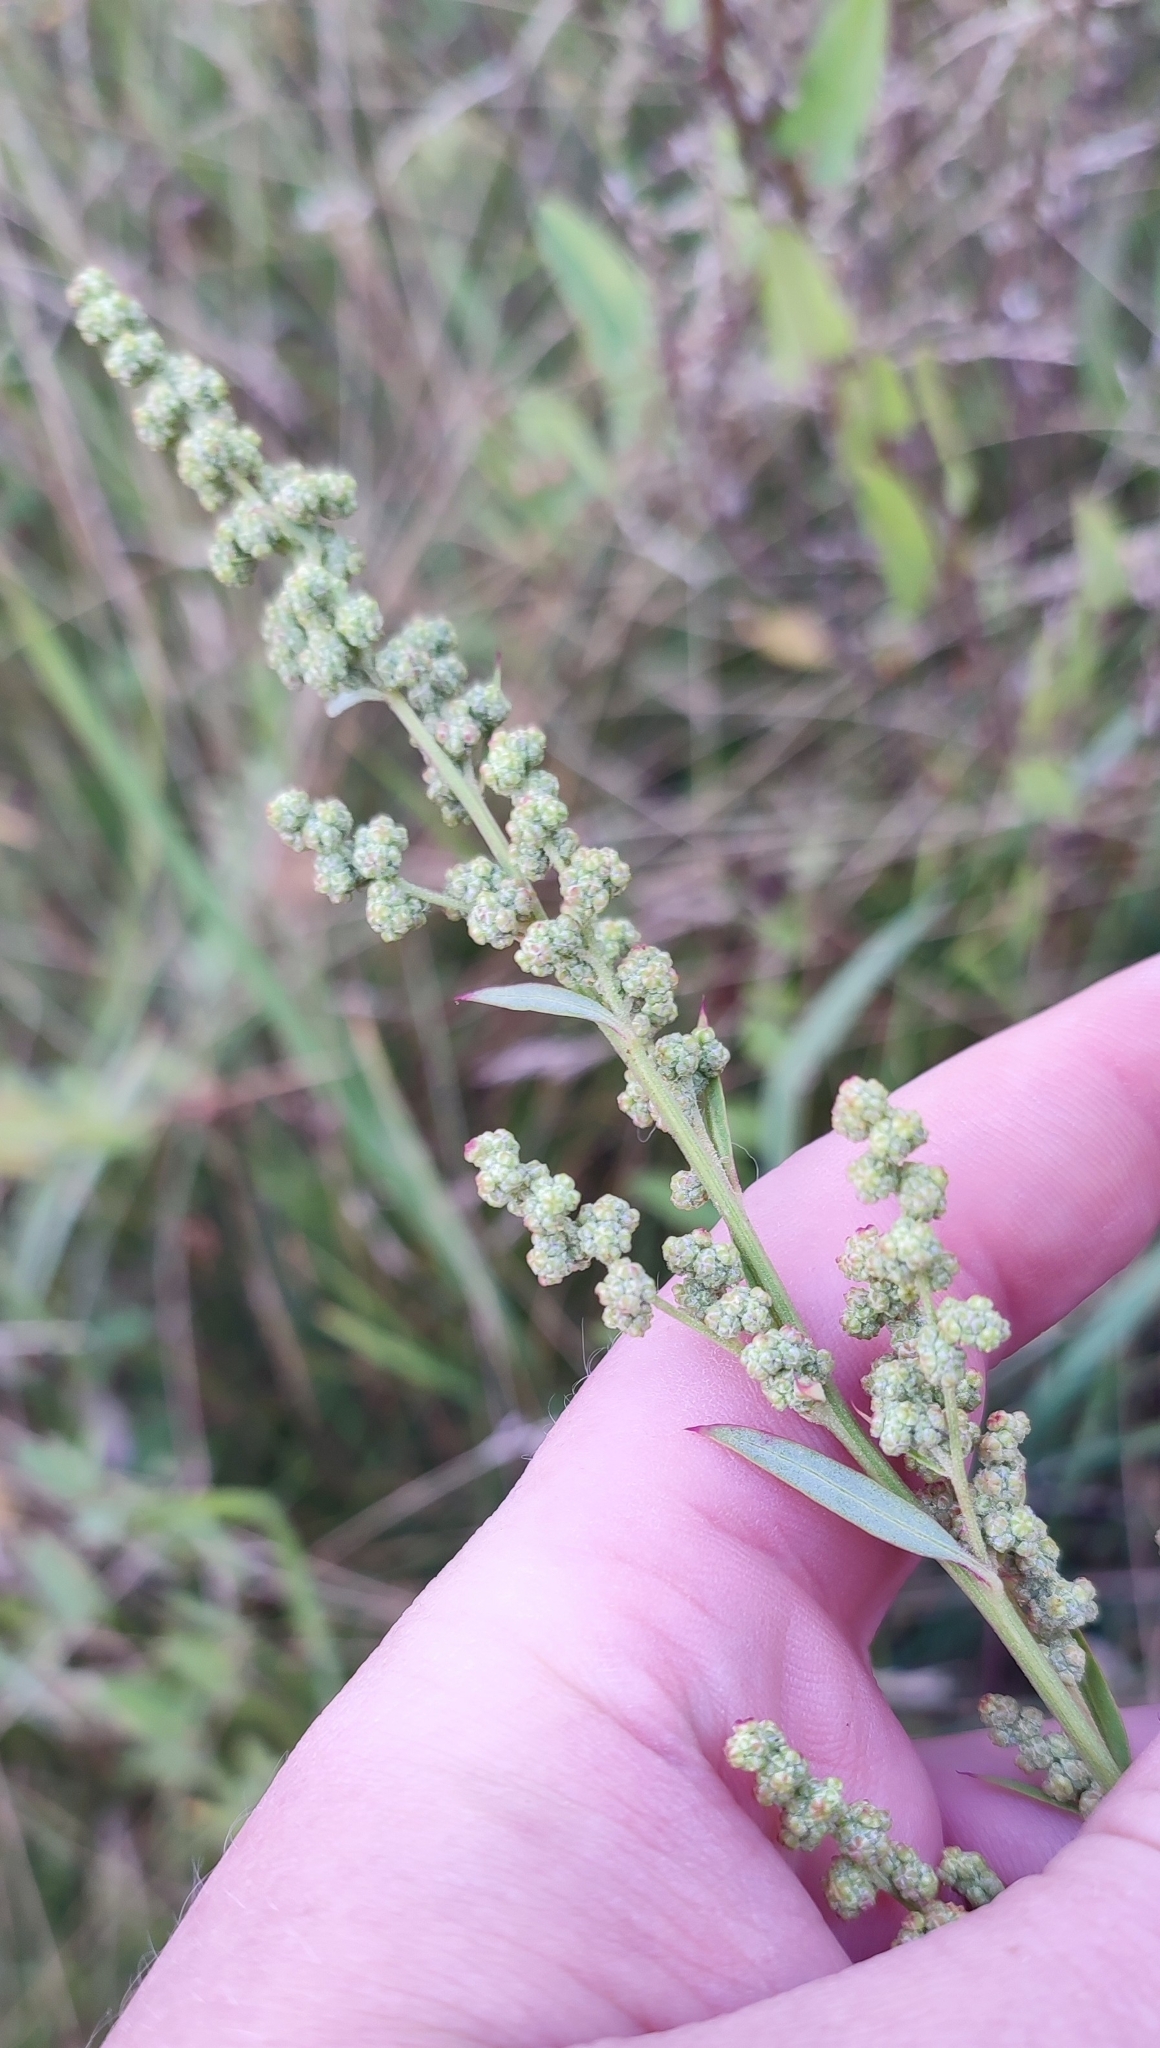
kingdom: Plantae
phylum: Tracheophyta
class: Magnoliopsida
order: Caryophyllales
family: Amaranthaceae
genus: Chenopodium
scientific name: Chenopodium album
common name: Fat-hen
